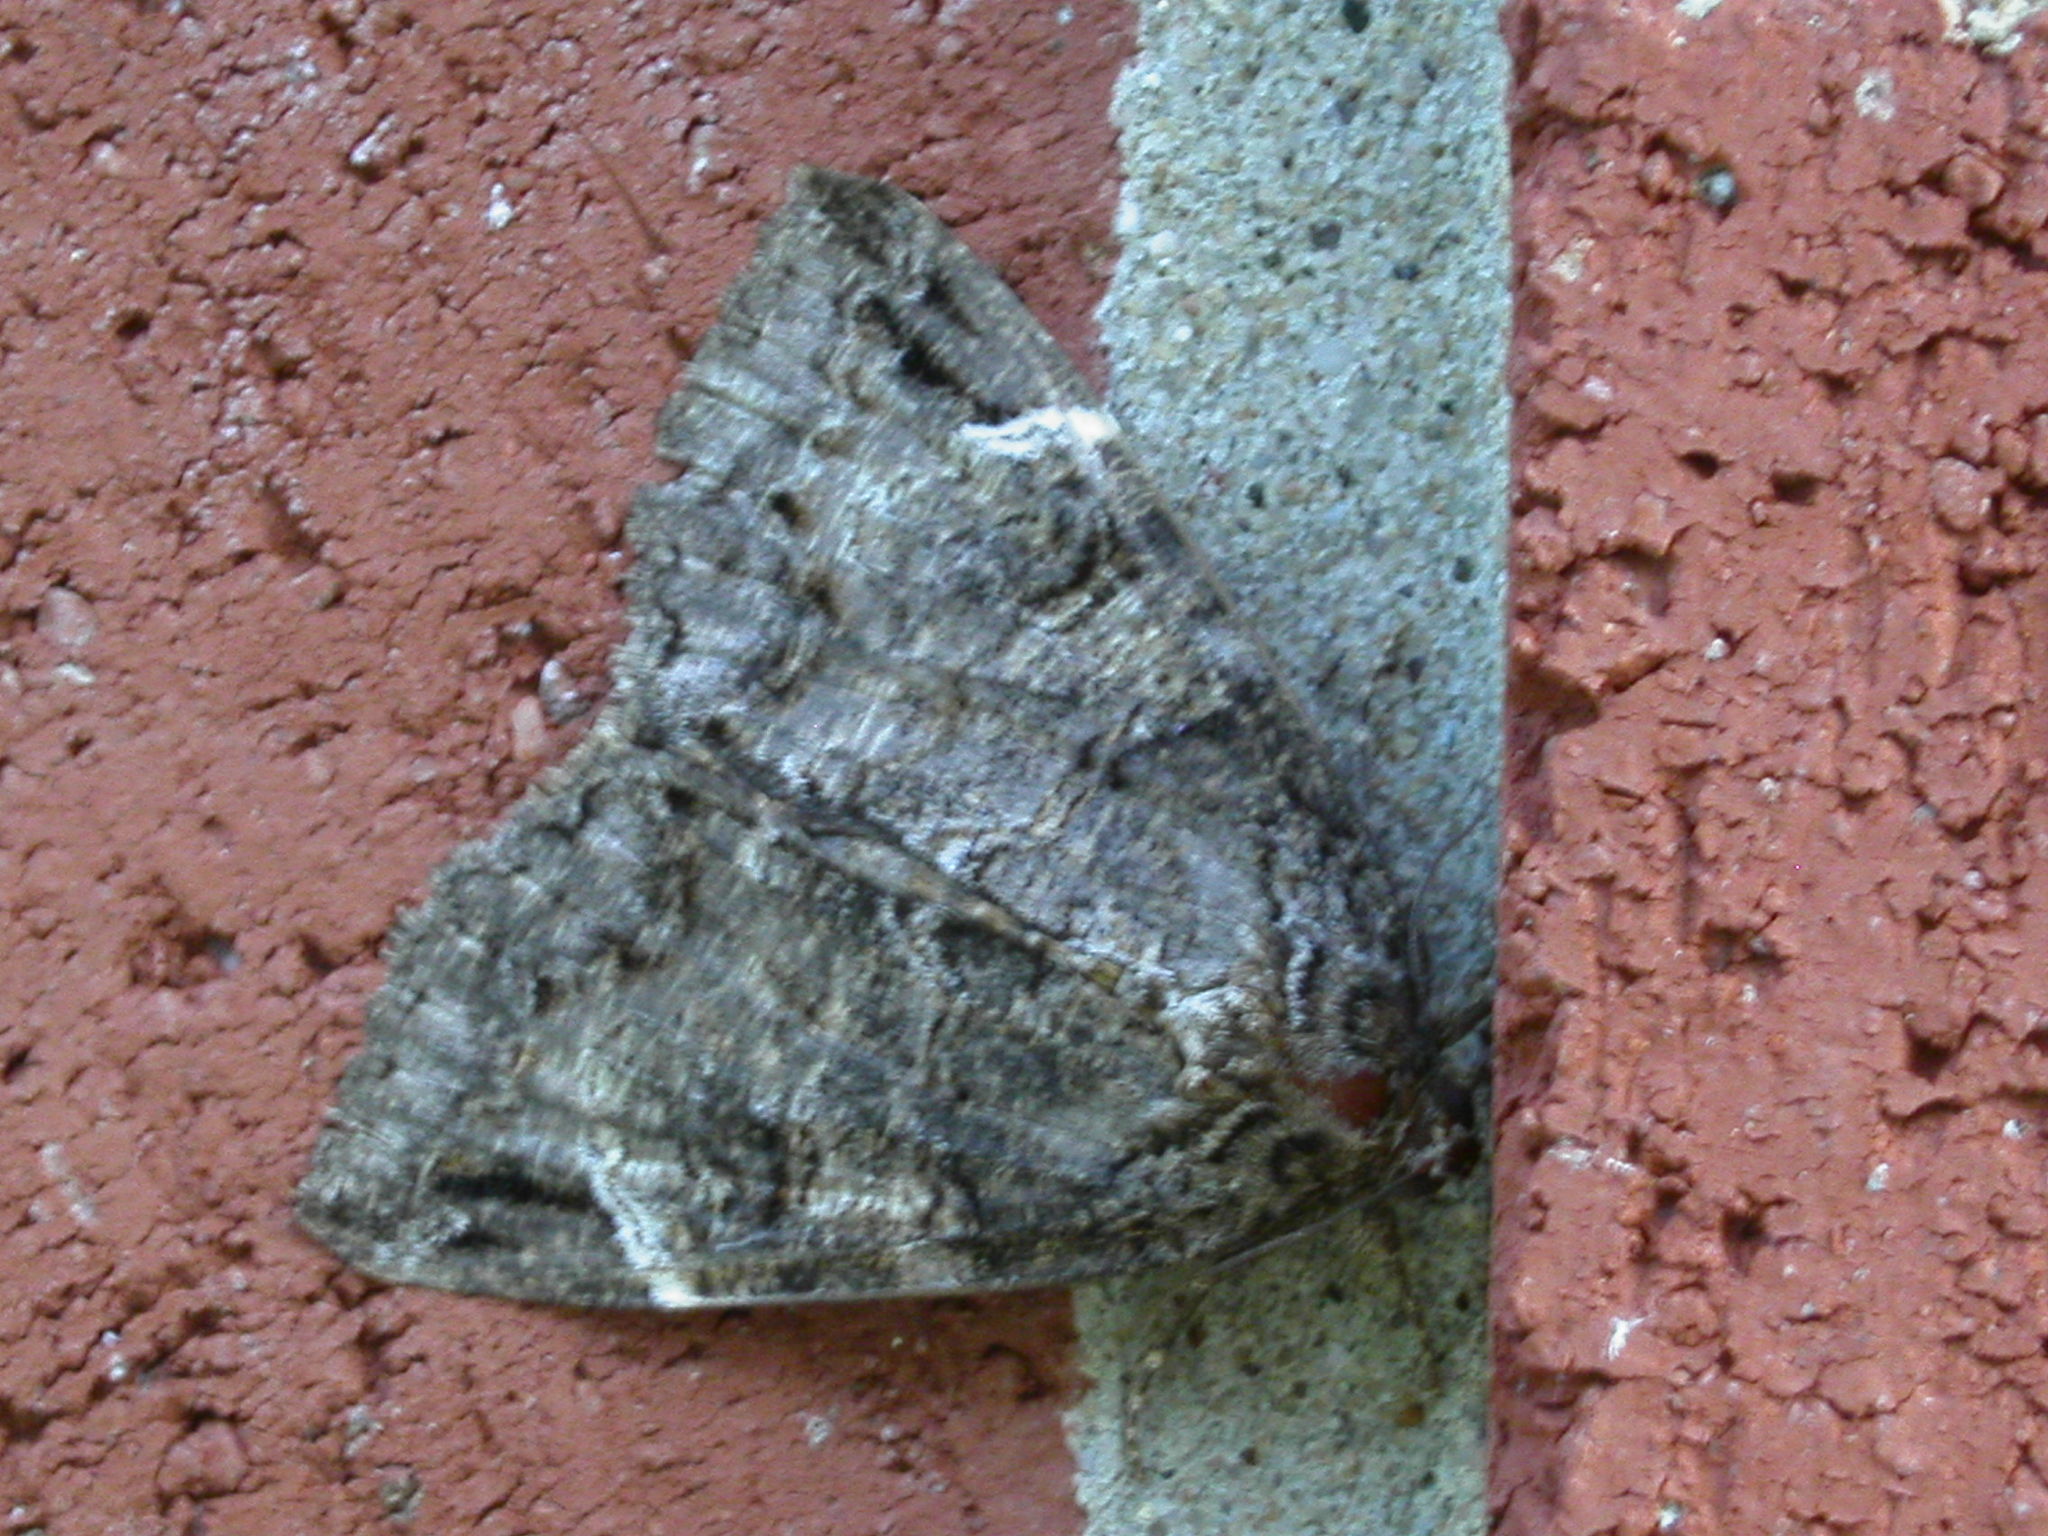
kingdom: Animalia
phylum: Arthropoda
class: Insecta
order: Lepidoptera
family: Erebidae
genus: Euparthenos
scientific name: Euparthenos nubilis
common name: Locust underwing
